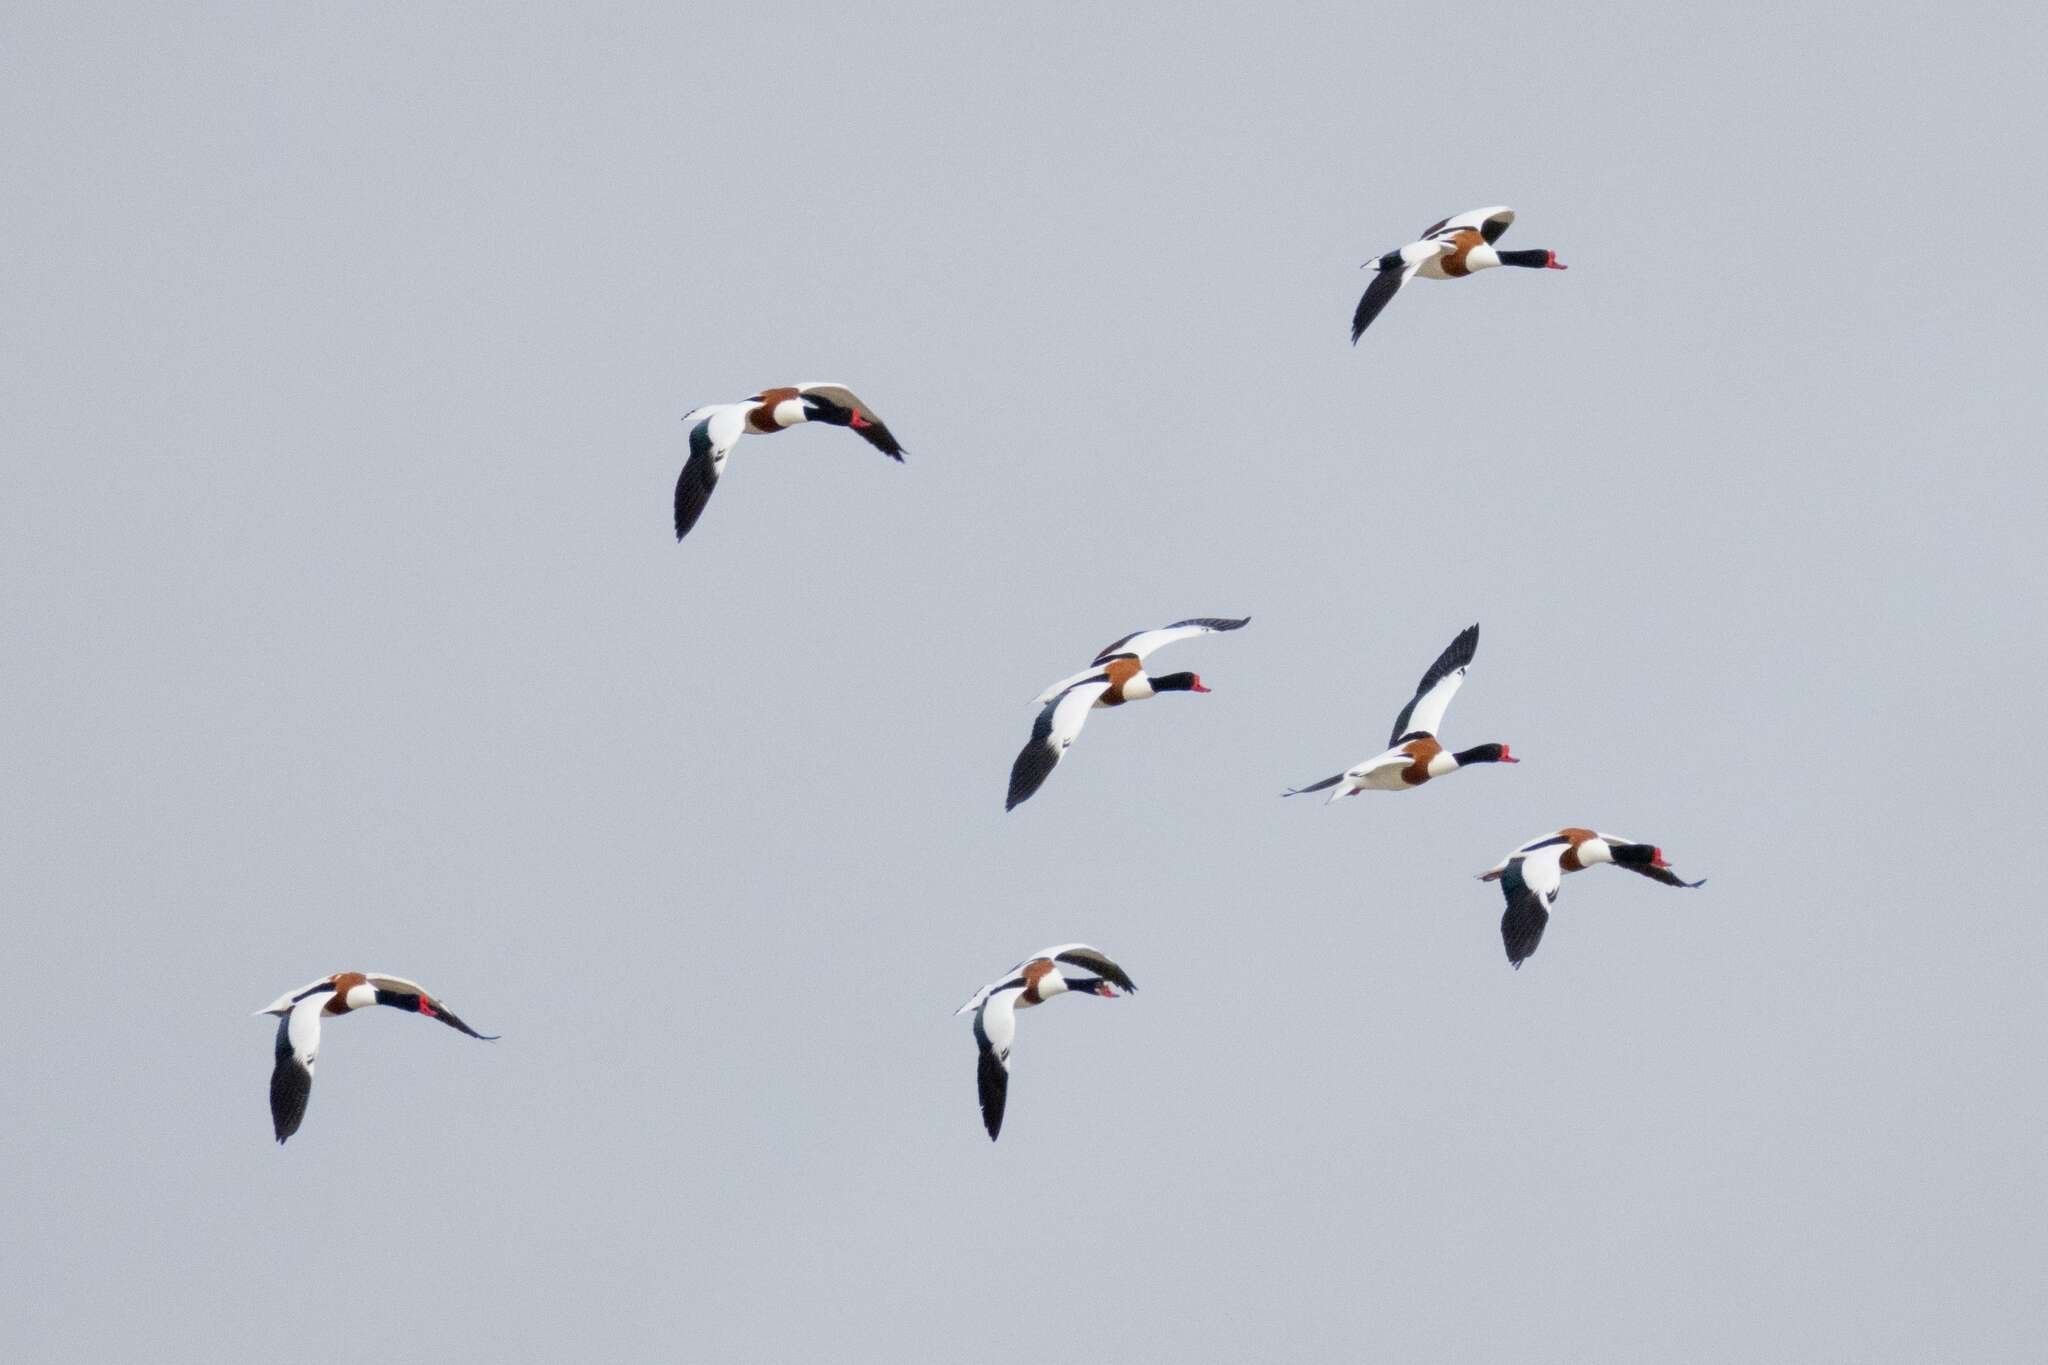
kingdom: Animalia
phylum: Chordata
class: Aves
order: Anseriformes
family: Anatidae
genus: Tadorna
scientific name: Tadorna tadorna
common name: Common shelduck
